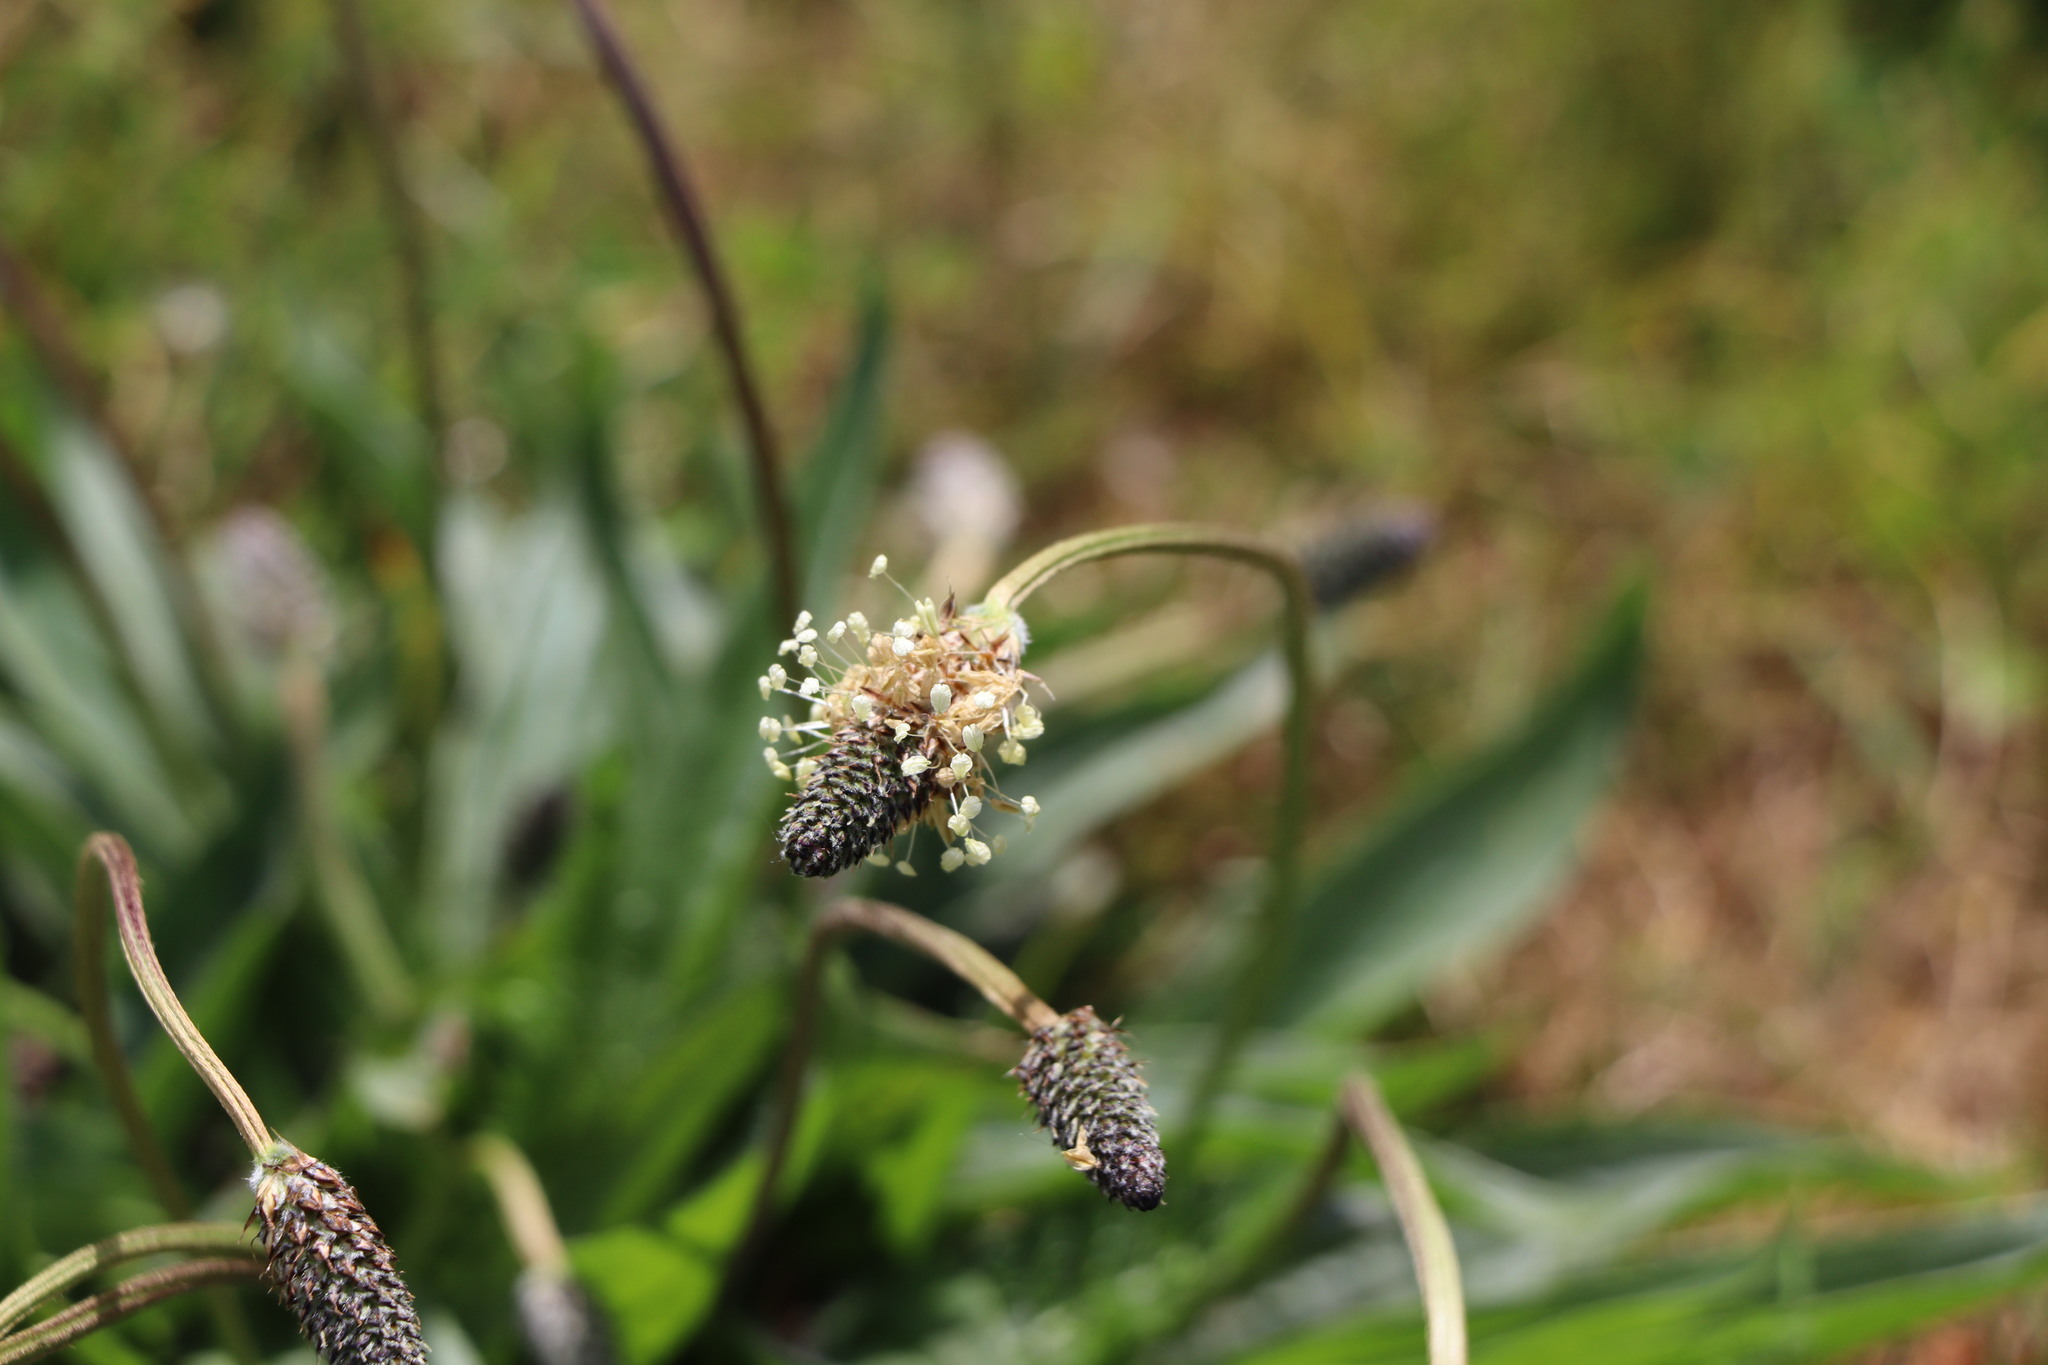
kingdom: Plantae
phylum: Tracheophyta
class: Magnoliopsida
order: Lamiales
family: Plantaginaceae
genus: Plantago
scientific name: Plantago lanceolata
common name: Ribwort plantain
